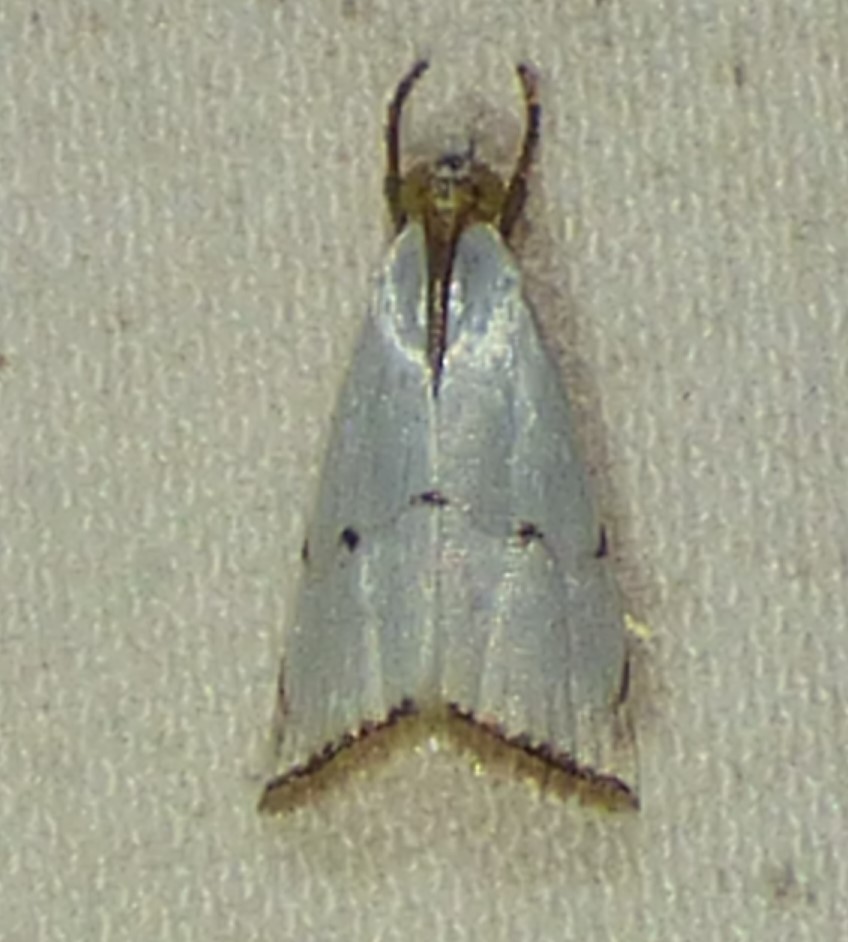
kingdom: Animalia
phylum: Arthropoda
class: Insecta
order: Lepidoptera
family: Crambidae
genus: Argyria
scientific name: Argyria pusillalis
